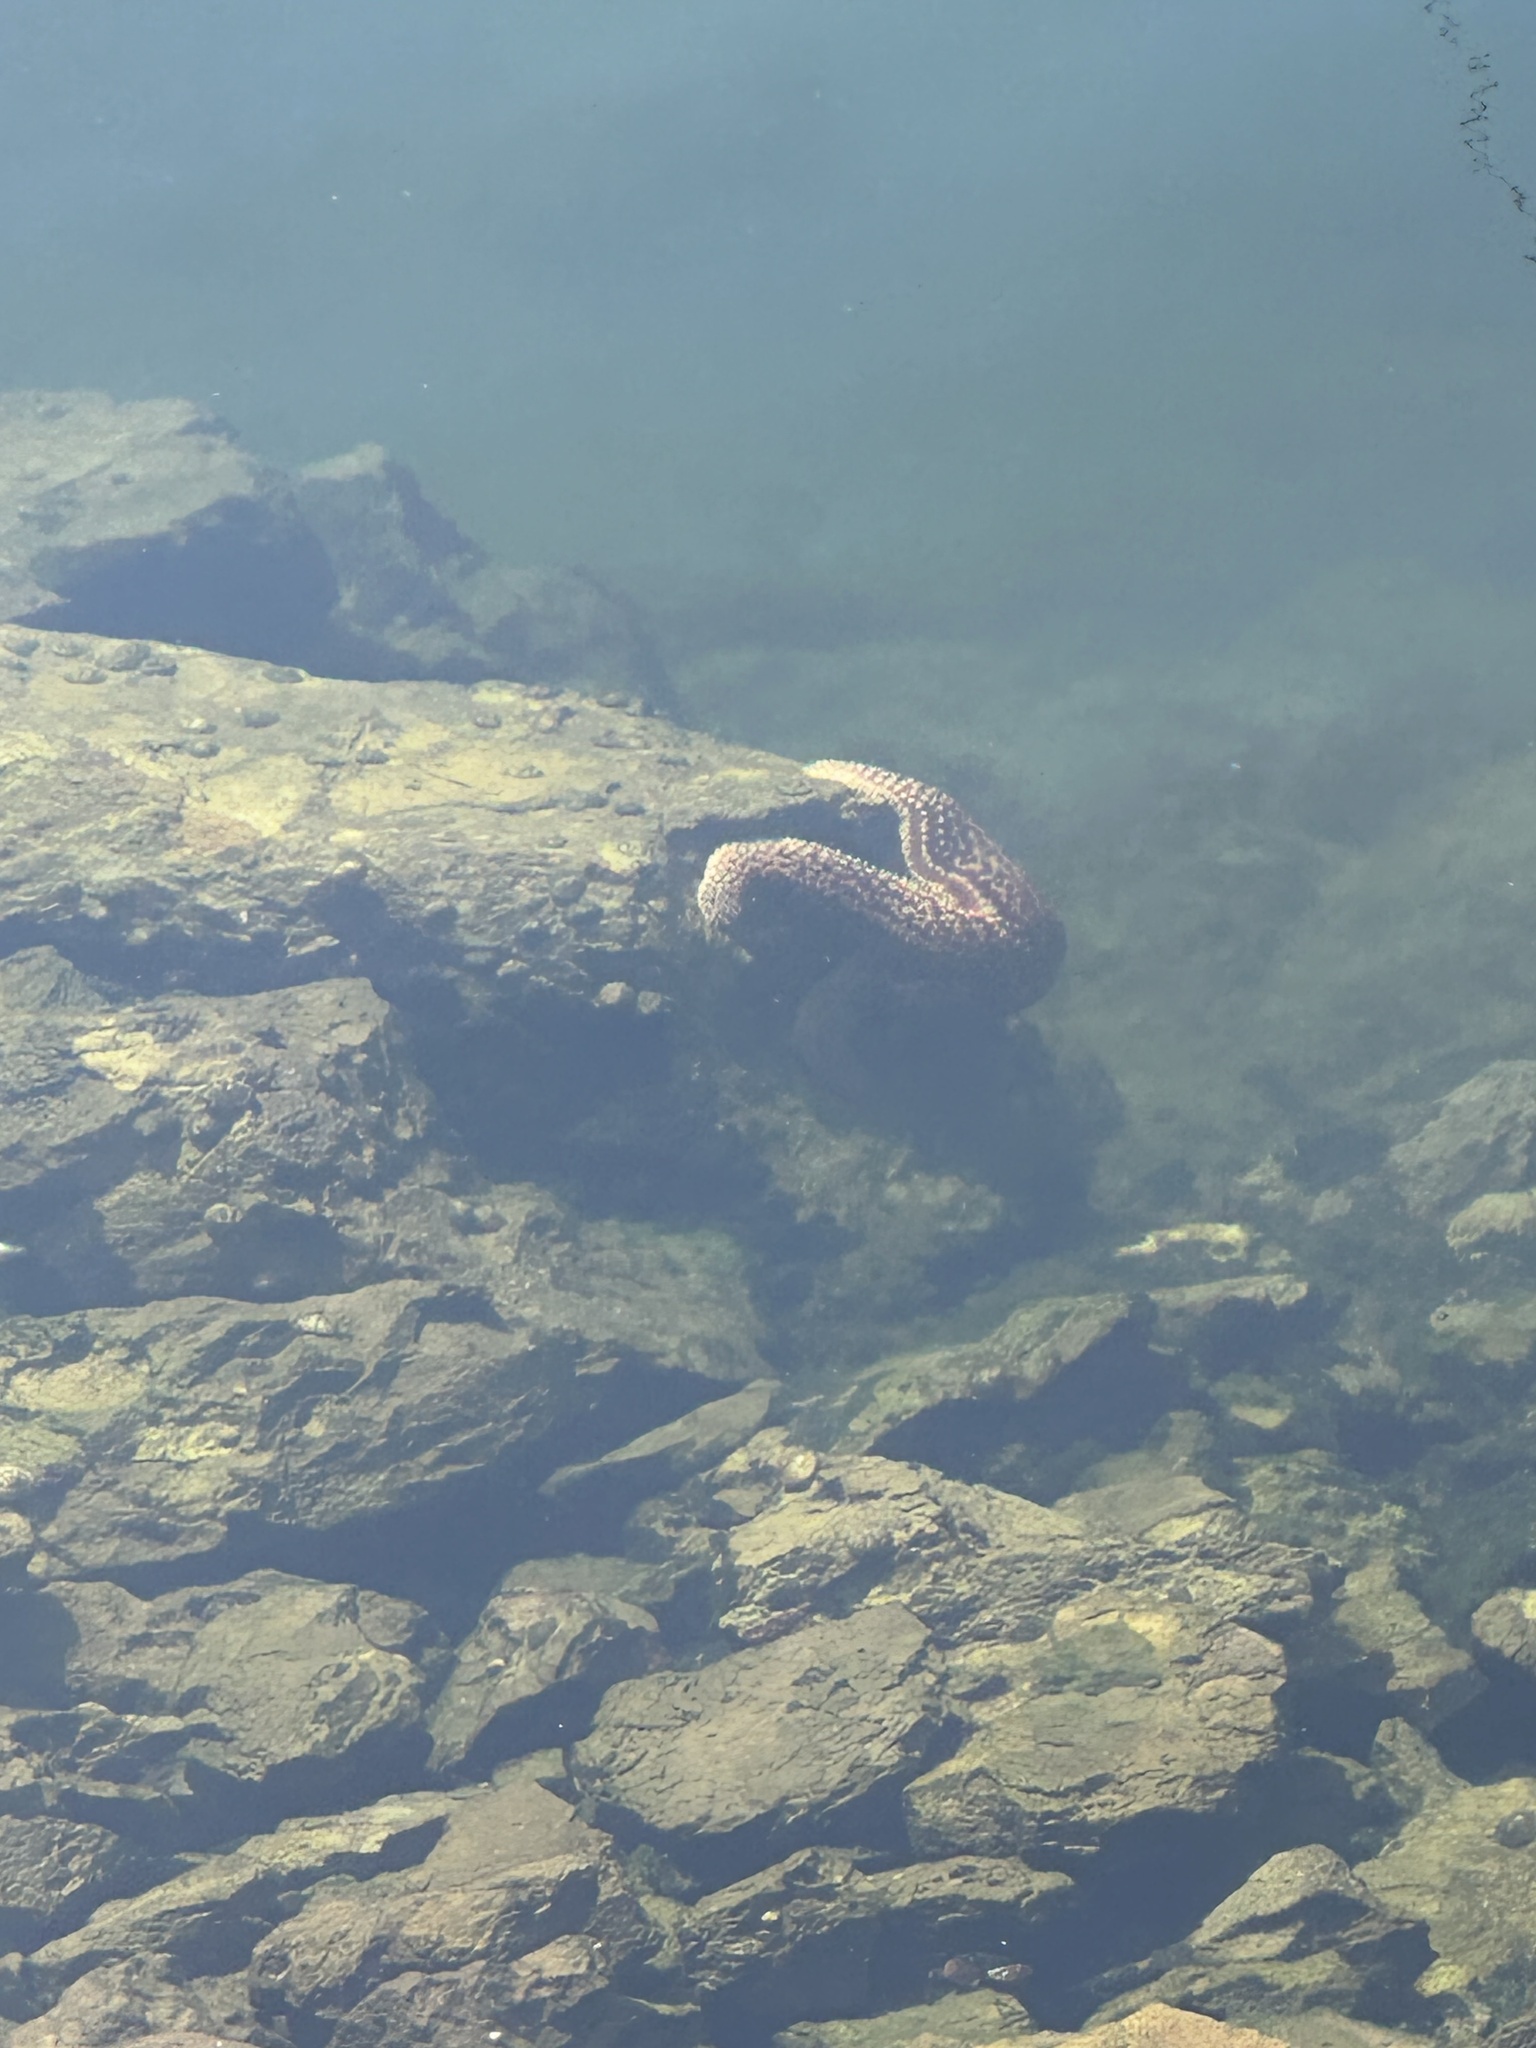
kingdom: Animalia
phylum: Echinodermata
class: Asteroidea
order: Forcipulatida
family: Asteriidae
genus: Pisaster
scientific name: Pisaster giganteus
